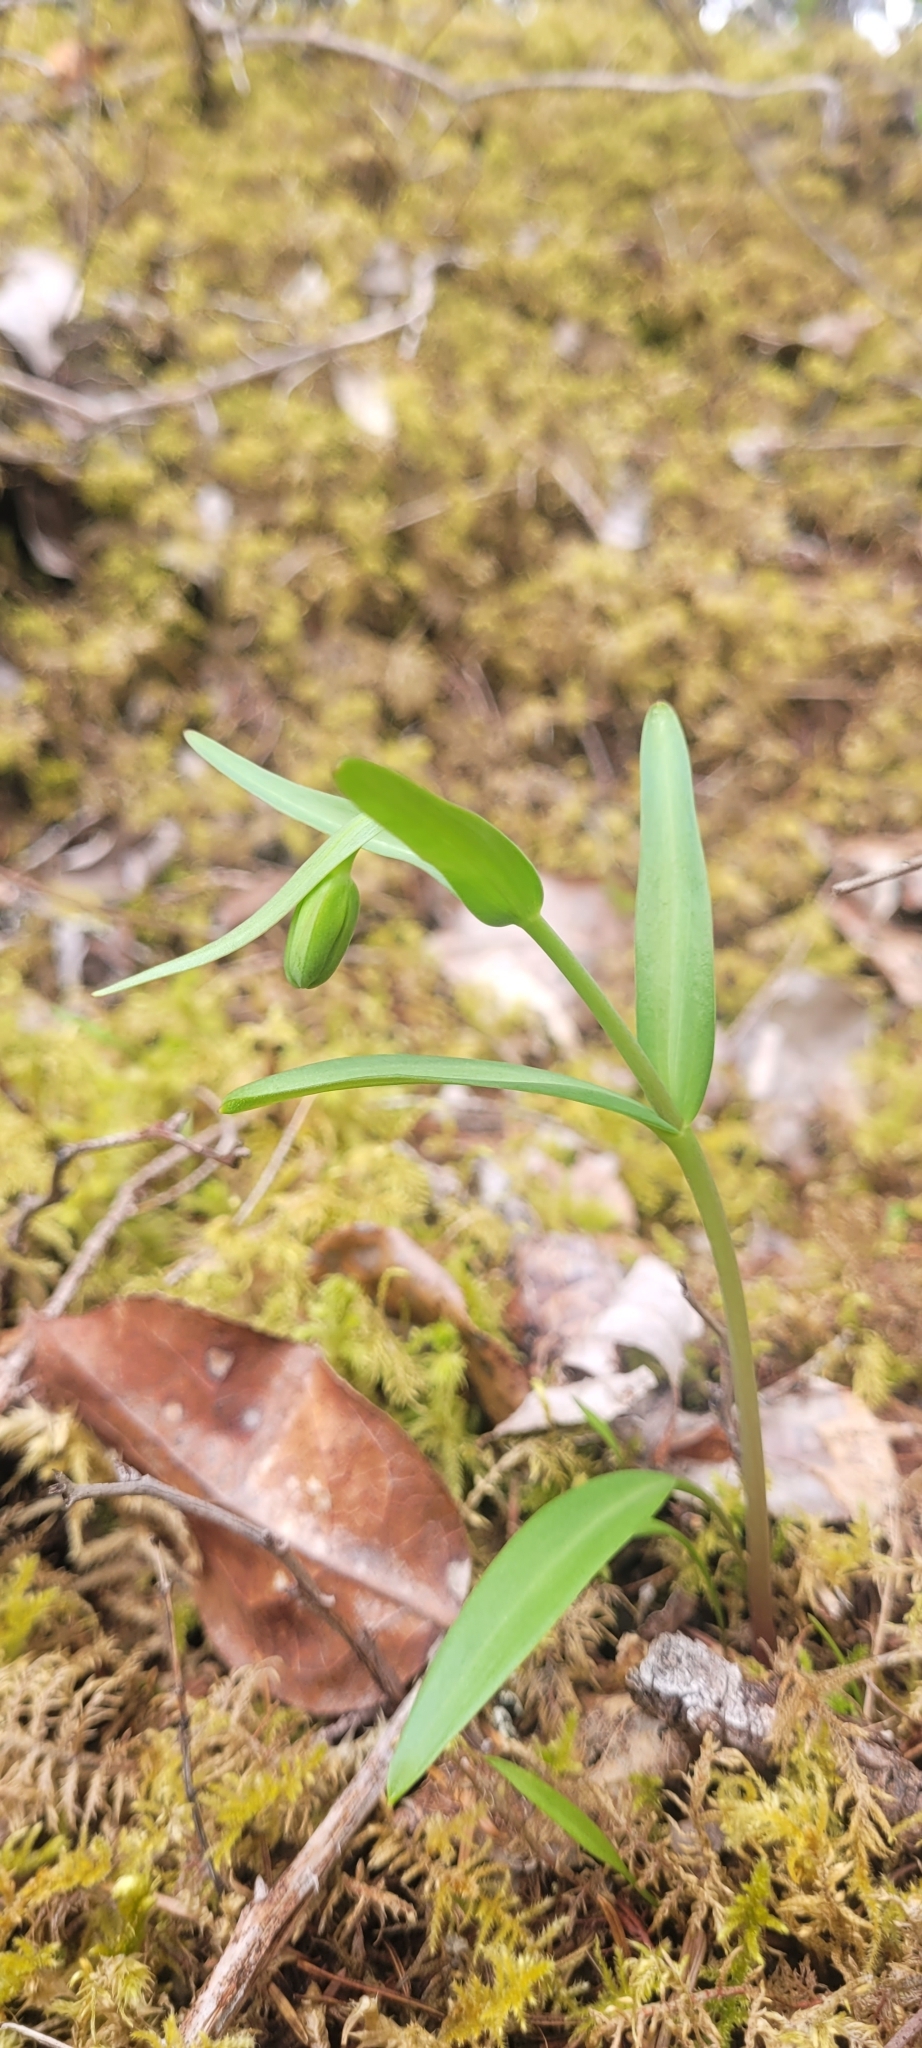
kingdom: Plantae
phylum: Tracheophyta
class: Liliopsida
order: Liliales
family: Liliaceae
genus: Fritillaria
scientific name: Fritillaria affinis
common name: Ojai fritillary
